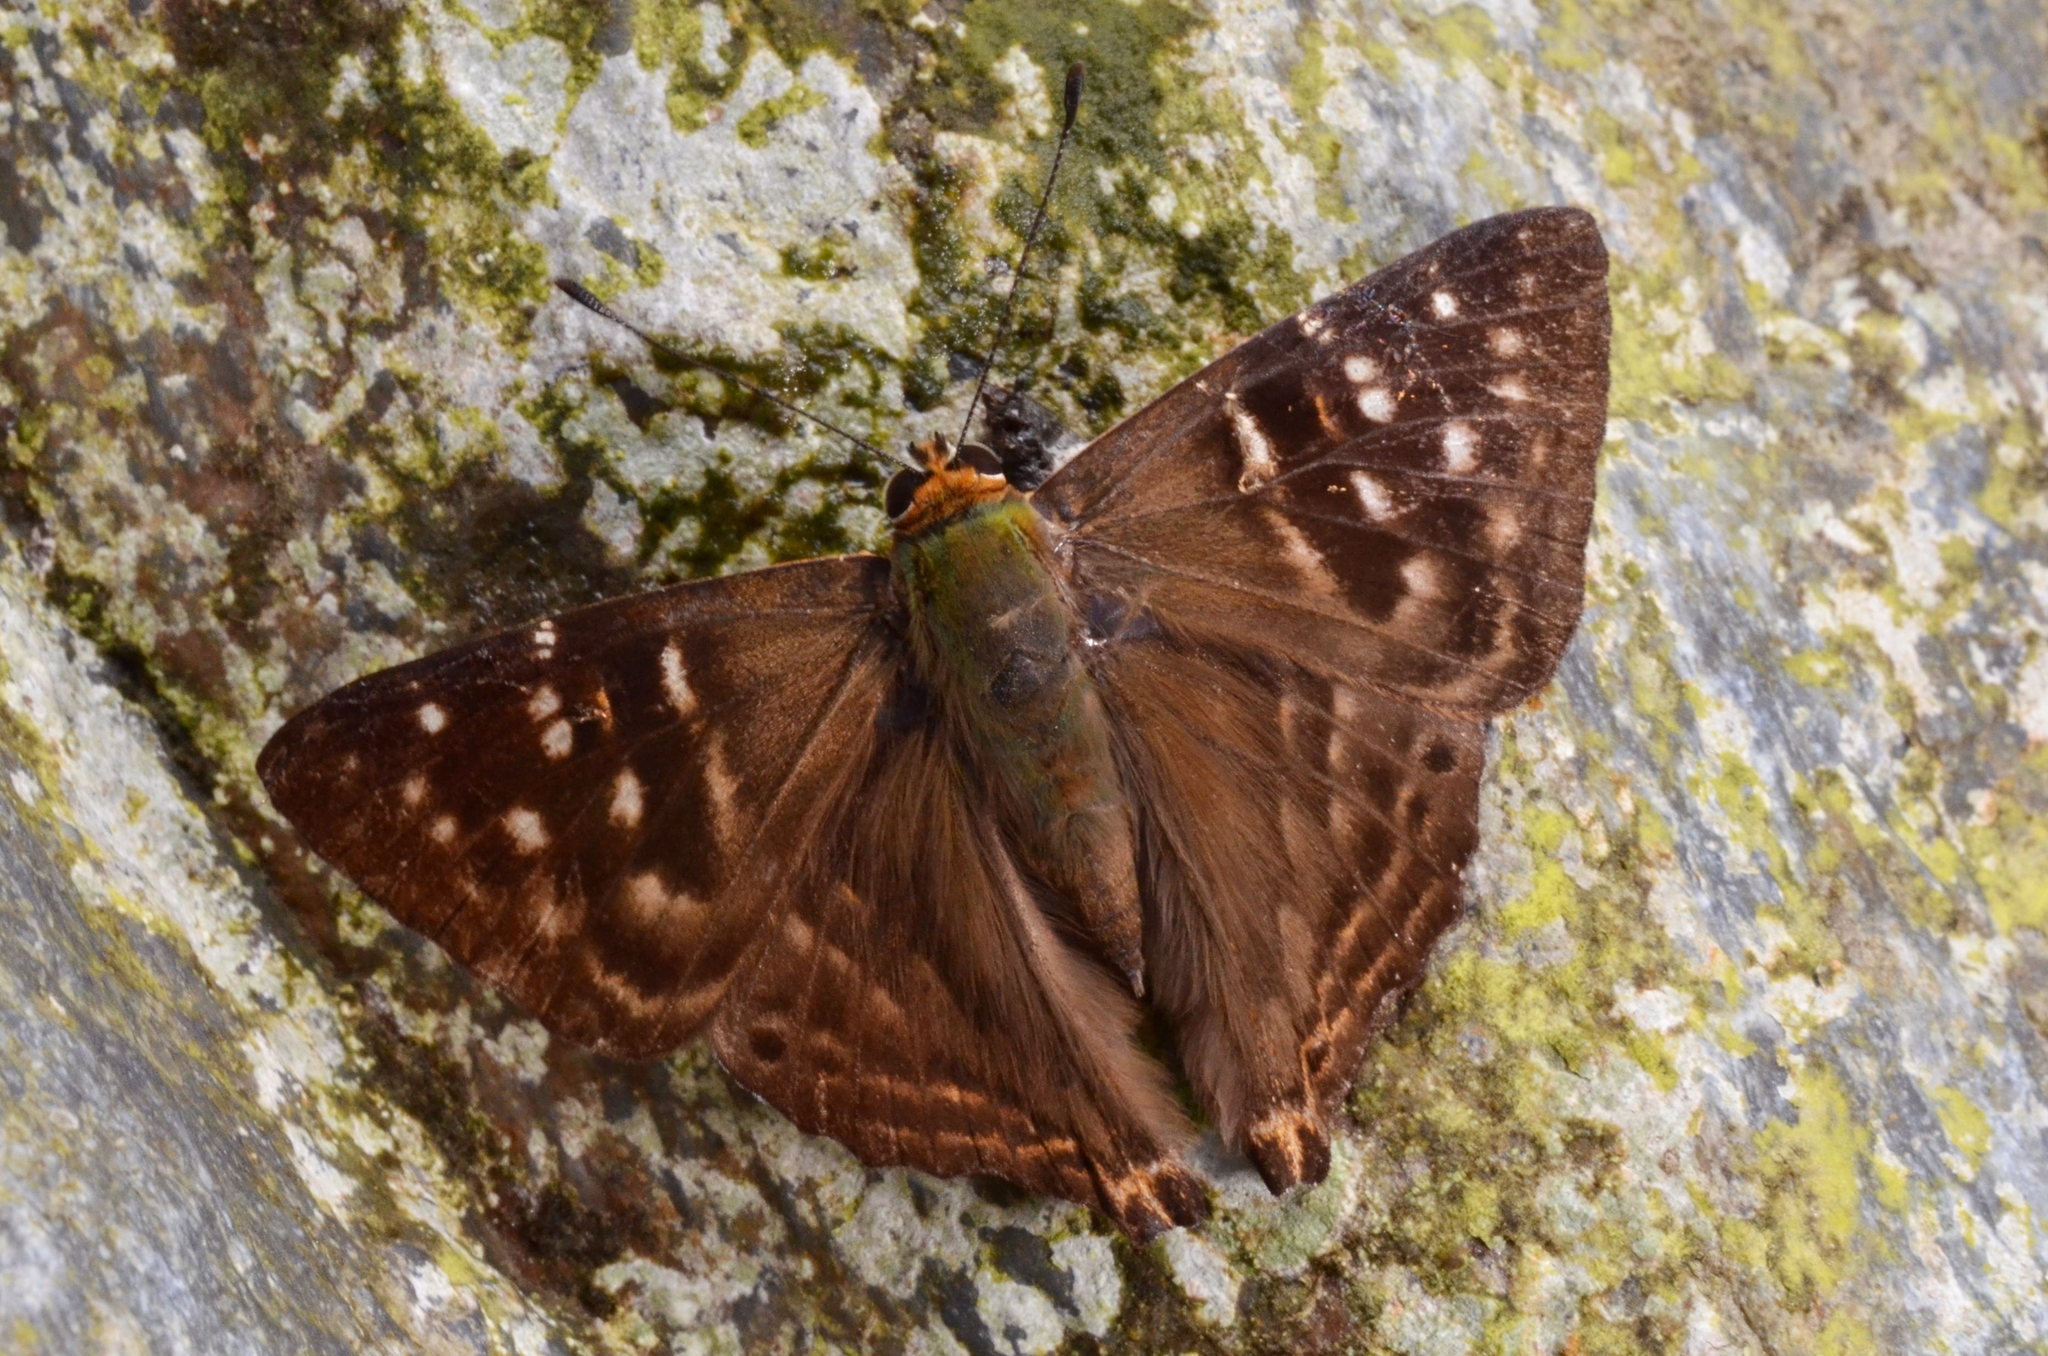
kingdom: Animalia
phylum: Arthropoda
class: Insecta
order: Lepidoptera
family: Lycaenidae
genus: Dodona
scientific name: Dodona eugenes
